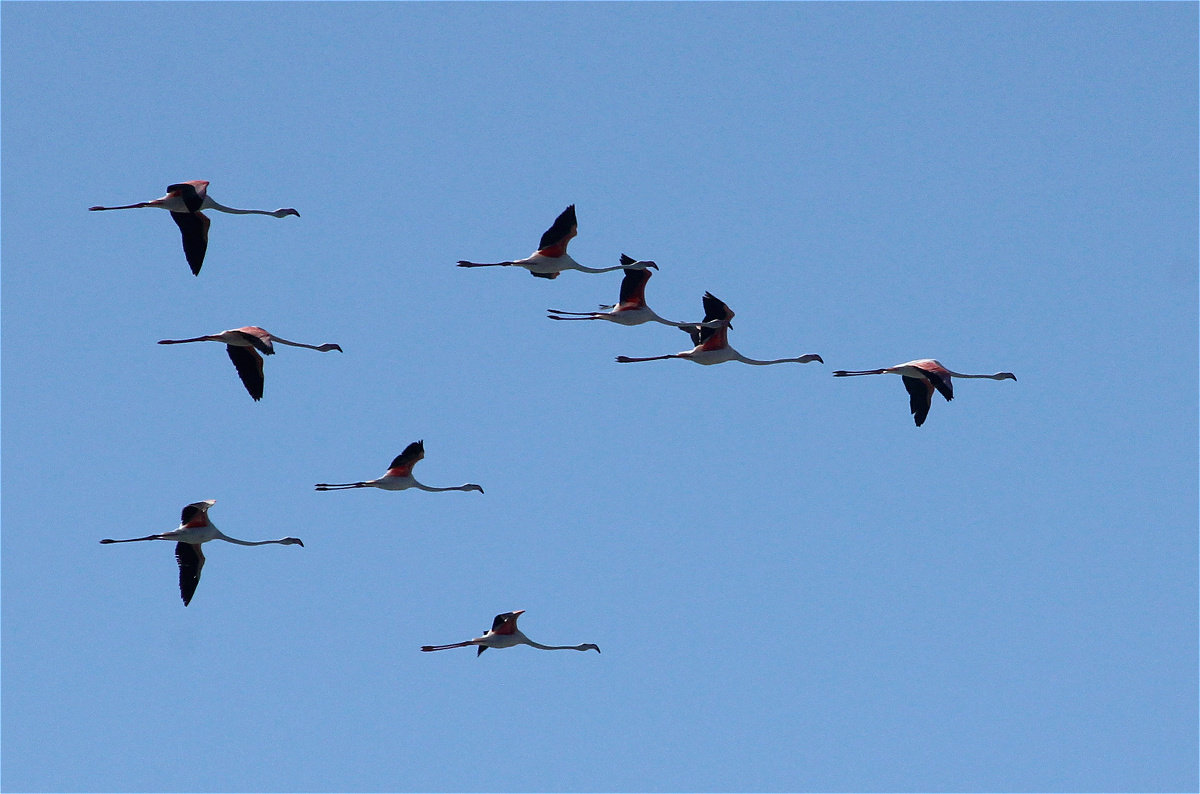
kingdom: Animalia
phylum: Chordata
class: Aves
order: Phoenicopteriformes
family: Phoenicopteridae
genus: Phoenicopterus
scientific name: Phoenicopterus roseus
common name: Greater flamingo
